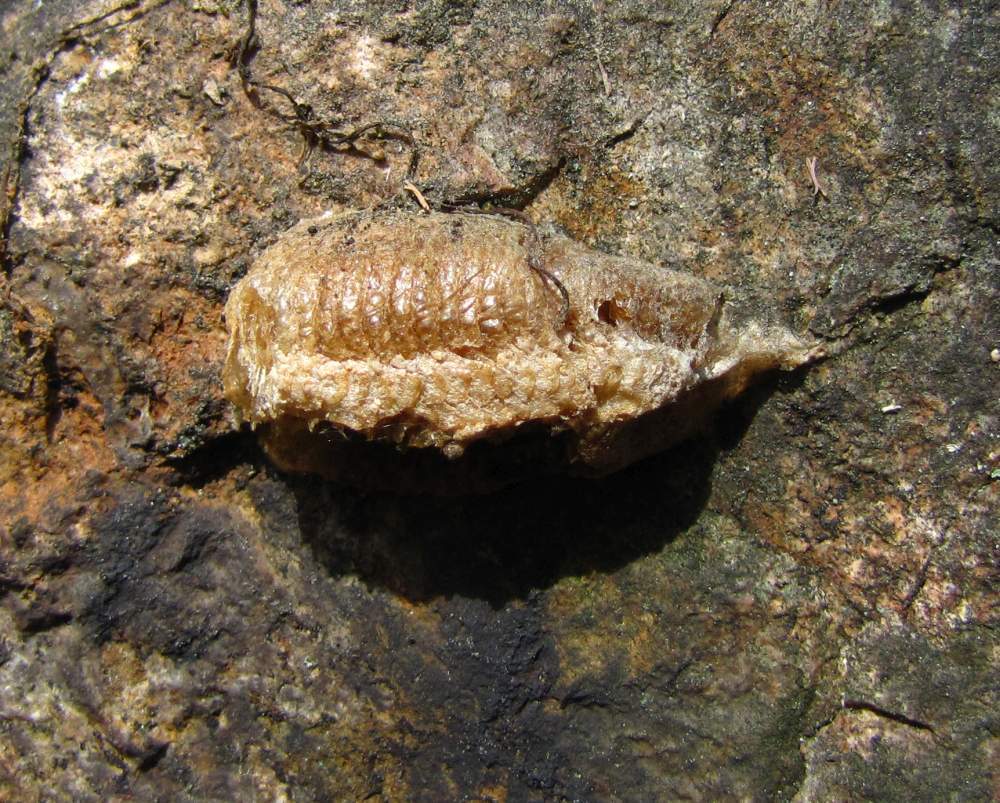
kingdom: Animalia
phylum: Arthropoda
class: Insecta
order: Mantodea
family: Mantidae
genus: Mantis
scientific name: Mantis religiosa
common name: Praying mantis
